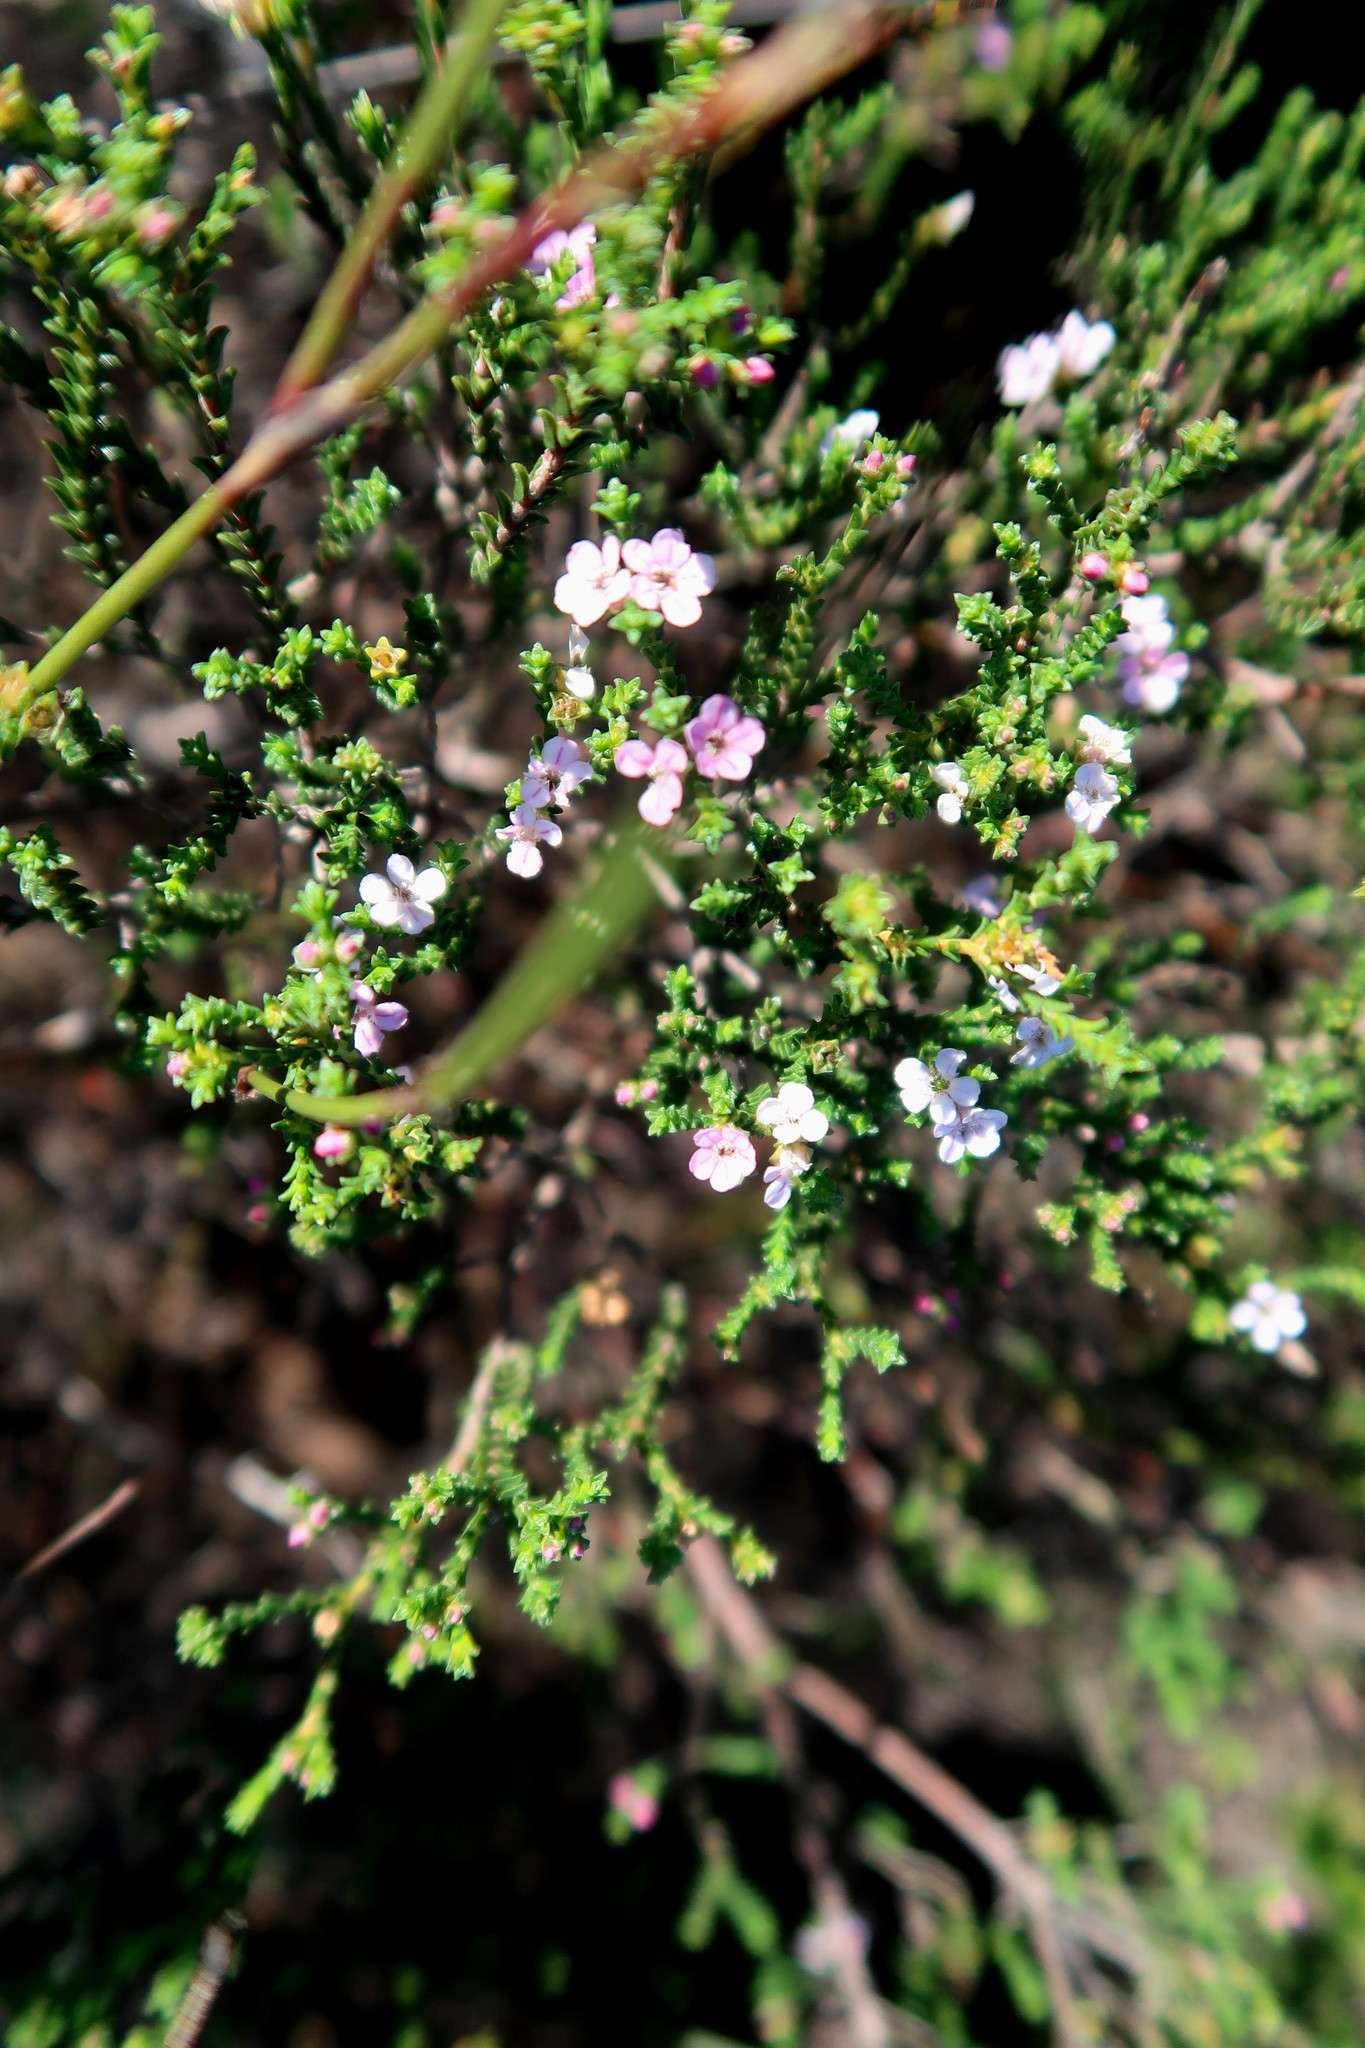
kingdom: Plantae
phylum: Tracheophyta
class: Magnoliopsida
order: Sapindales
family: Rutaceae
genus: Euchaetis
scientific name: Euchaetis albertiniana
